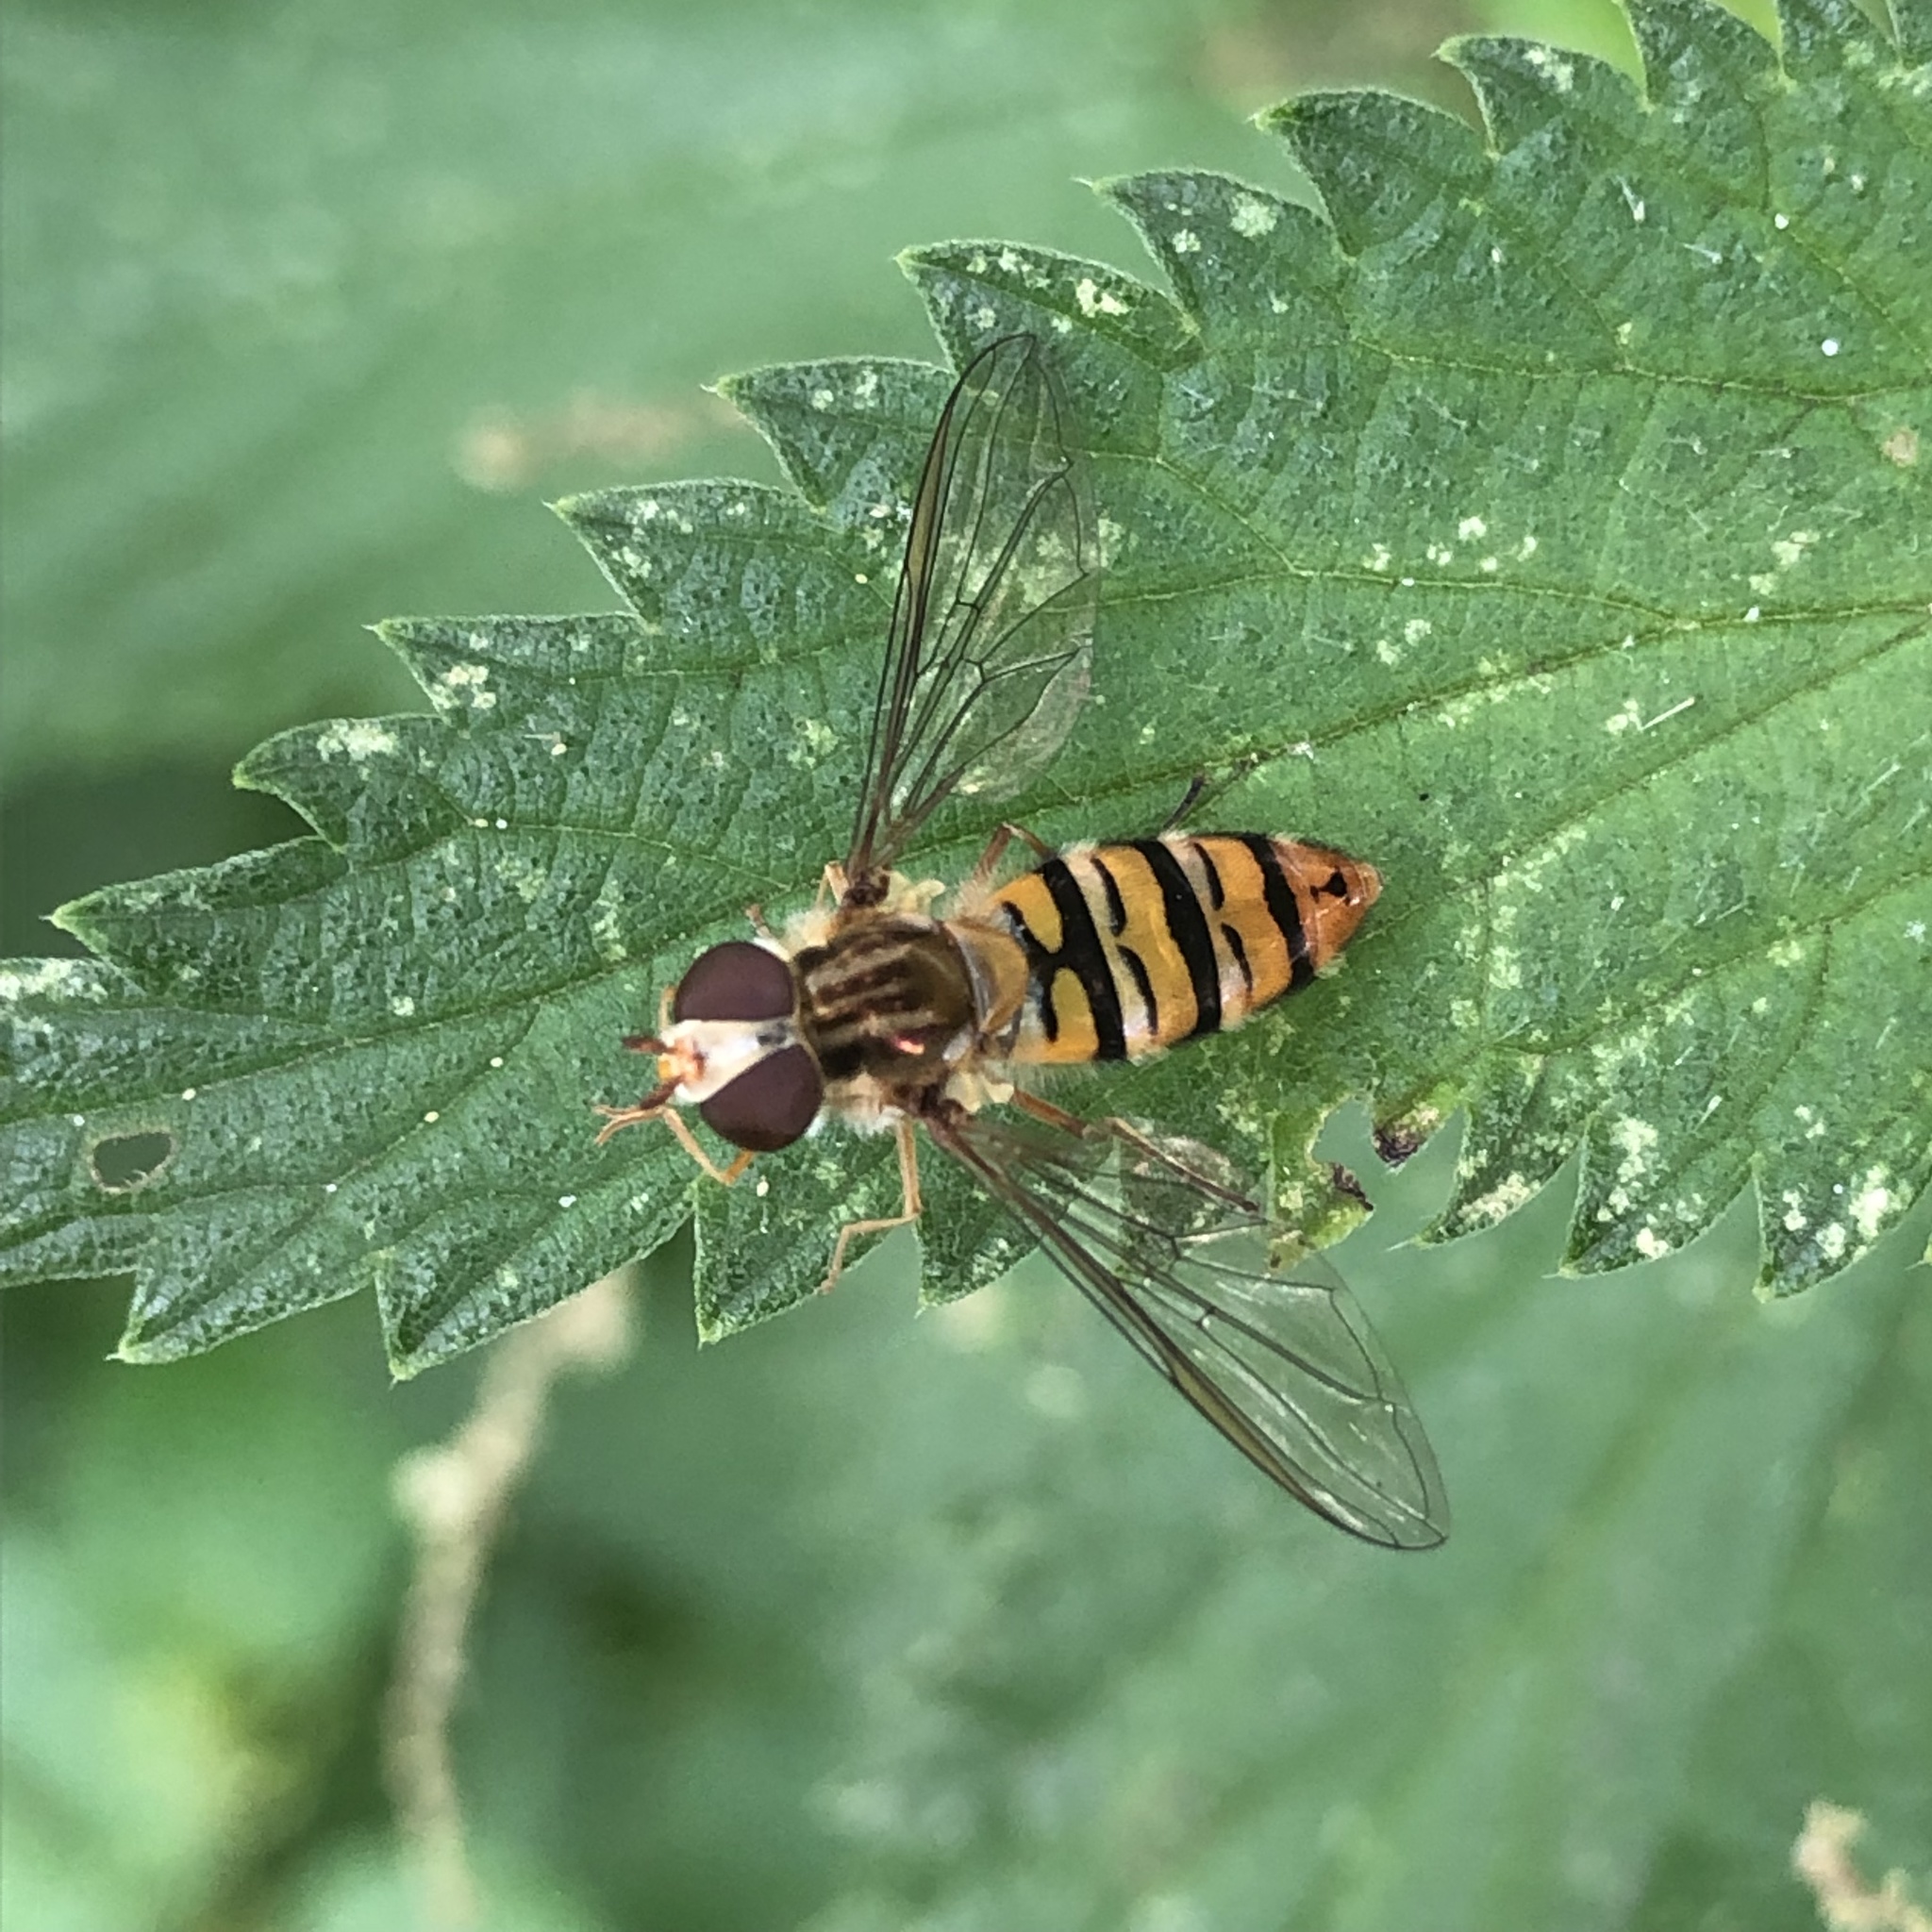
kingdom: Animalia
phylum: Arthropoda
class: Insecta
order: Diptera
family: Syrphidae
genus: Episyrphus
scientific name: Episyrphus balteatus
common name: Marmalade hoverfly
